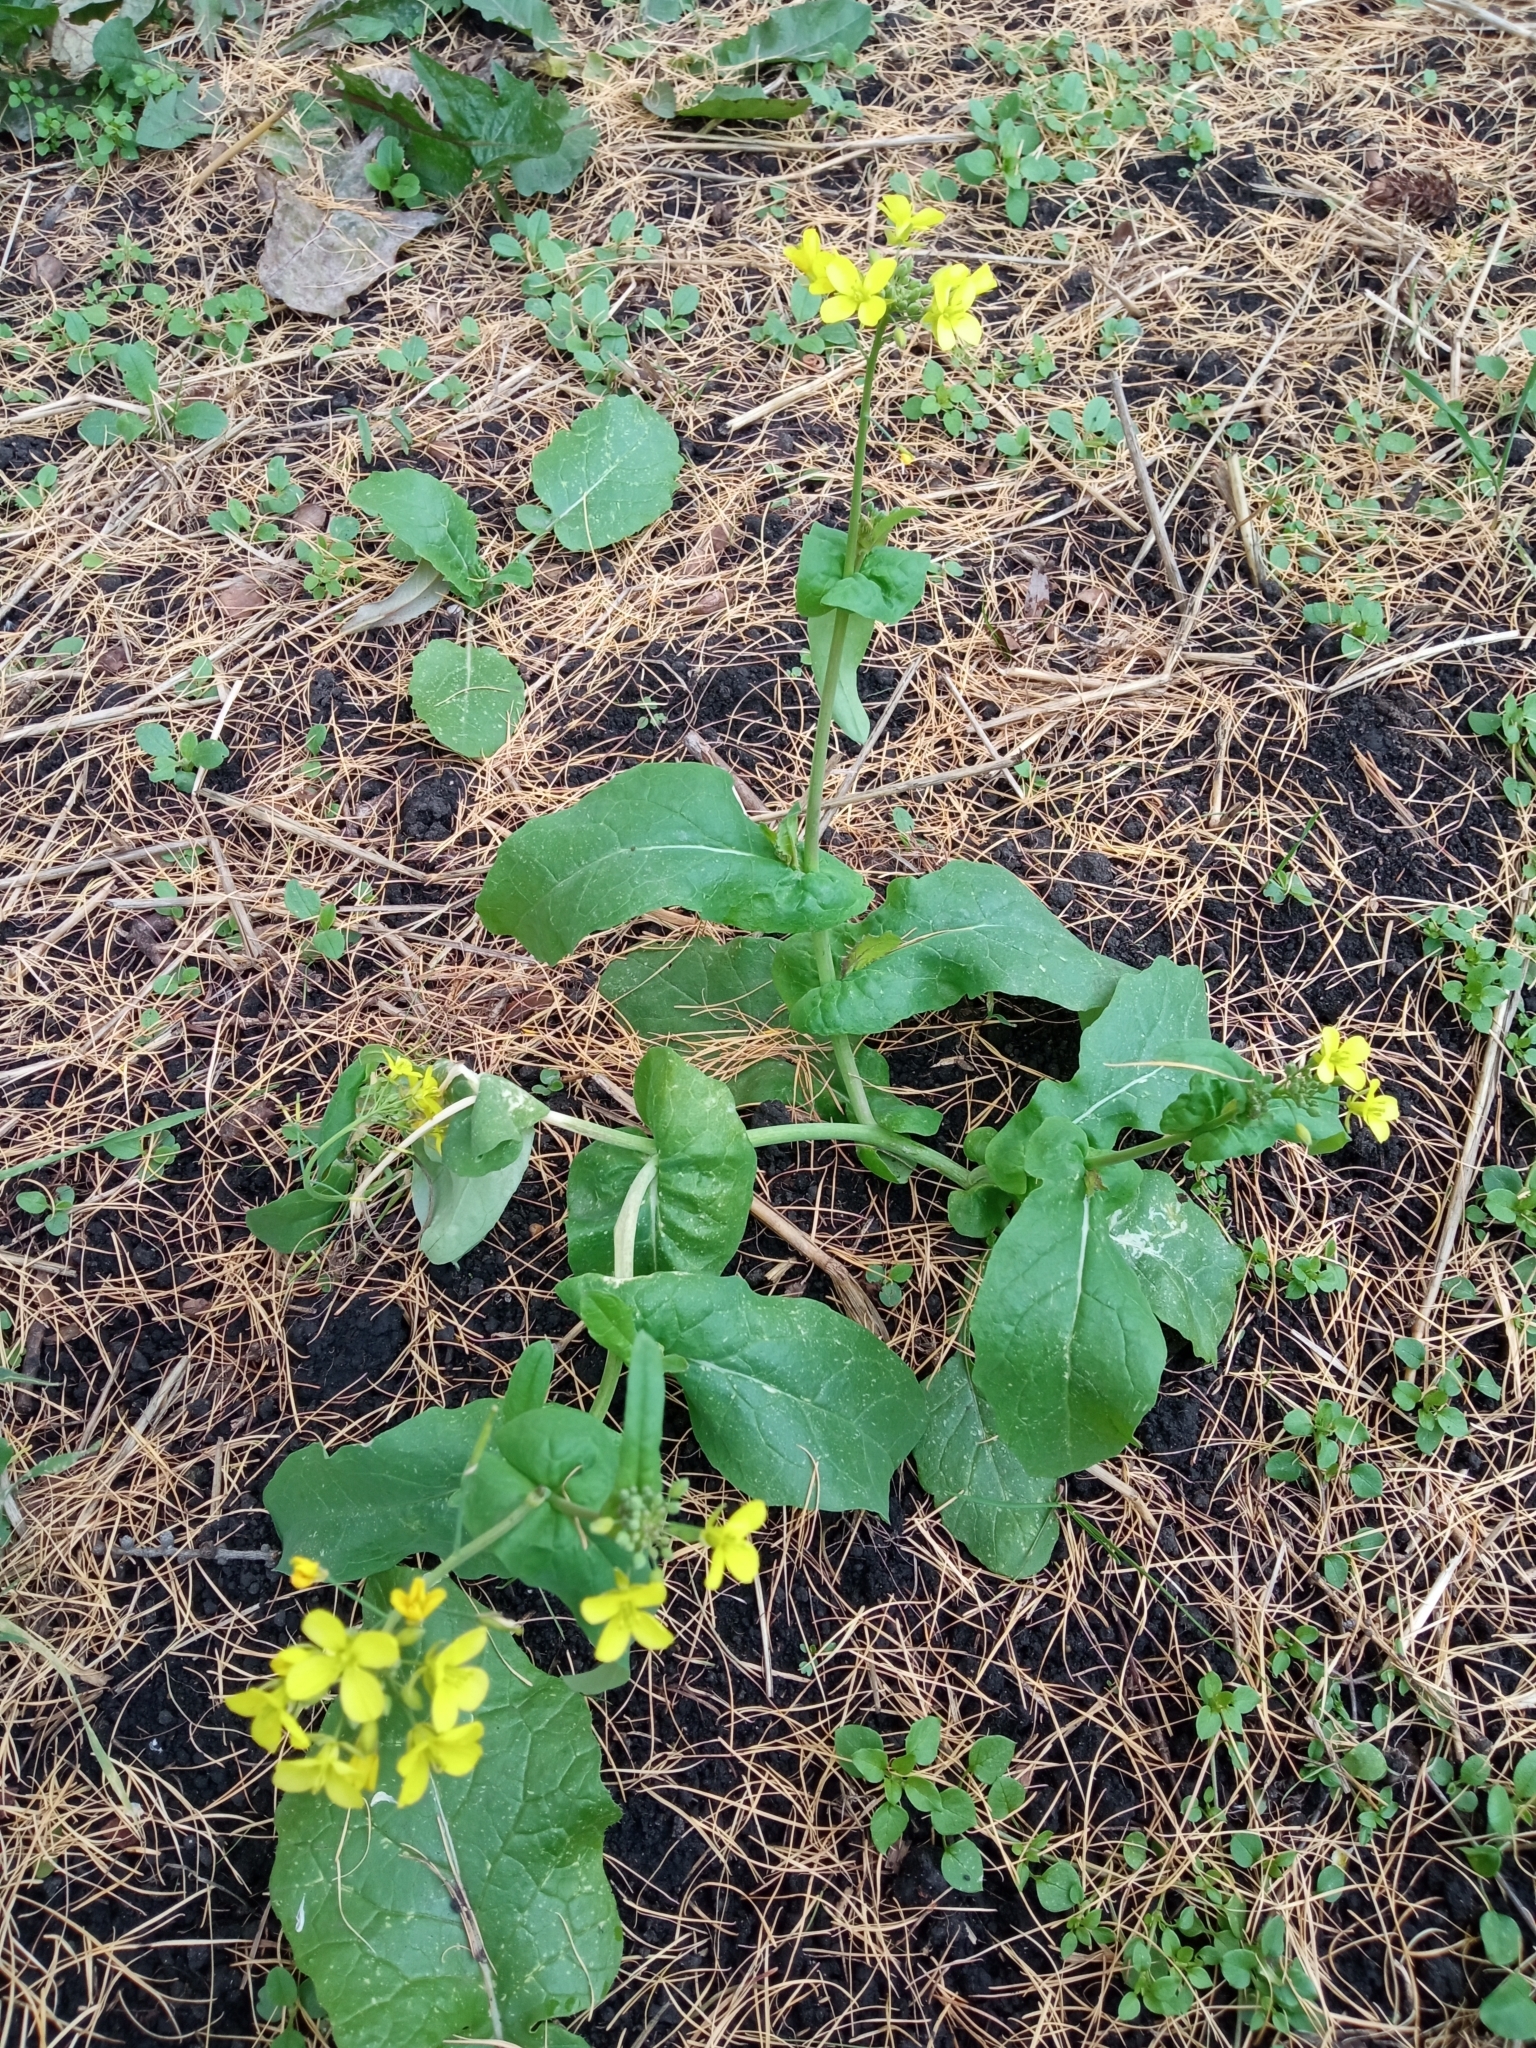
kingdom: Plantae
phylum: Tracheophyta
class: Magnoliopsida
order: Brassicales
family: Brassicaceae
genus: Brassica
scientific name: Brassica rapa
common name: Field mustard
